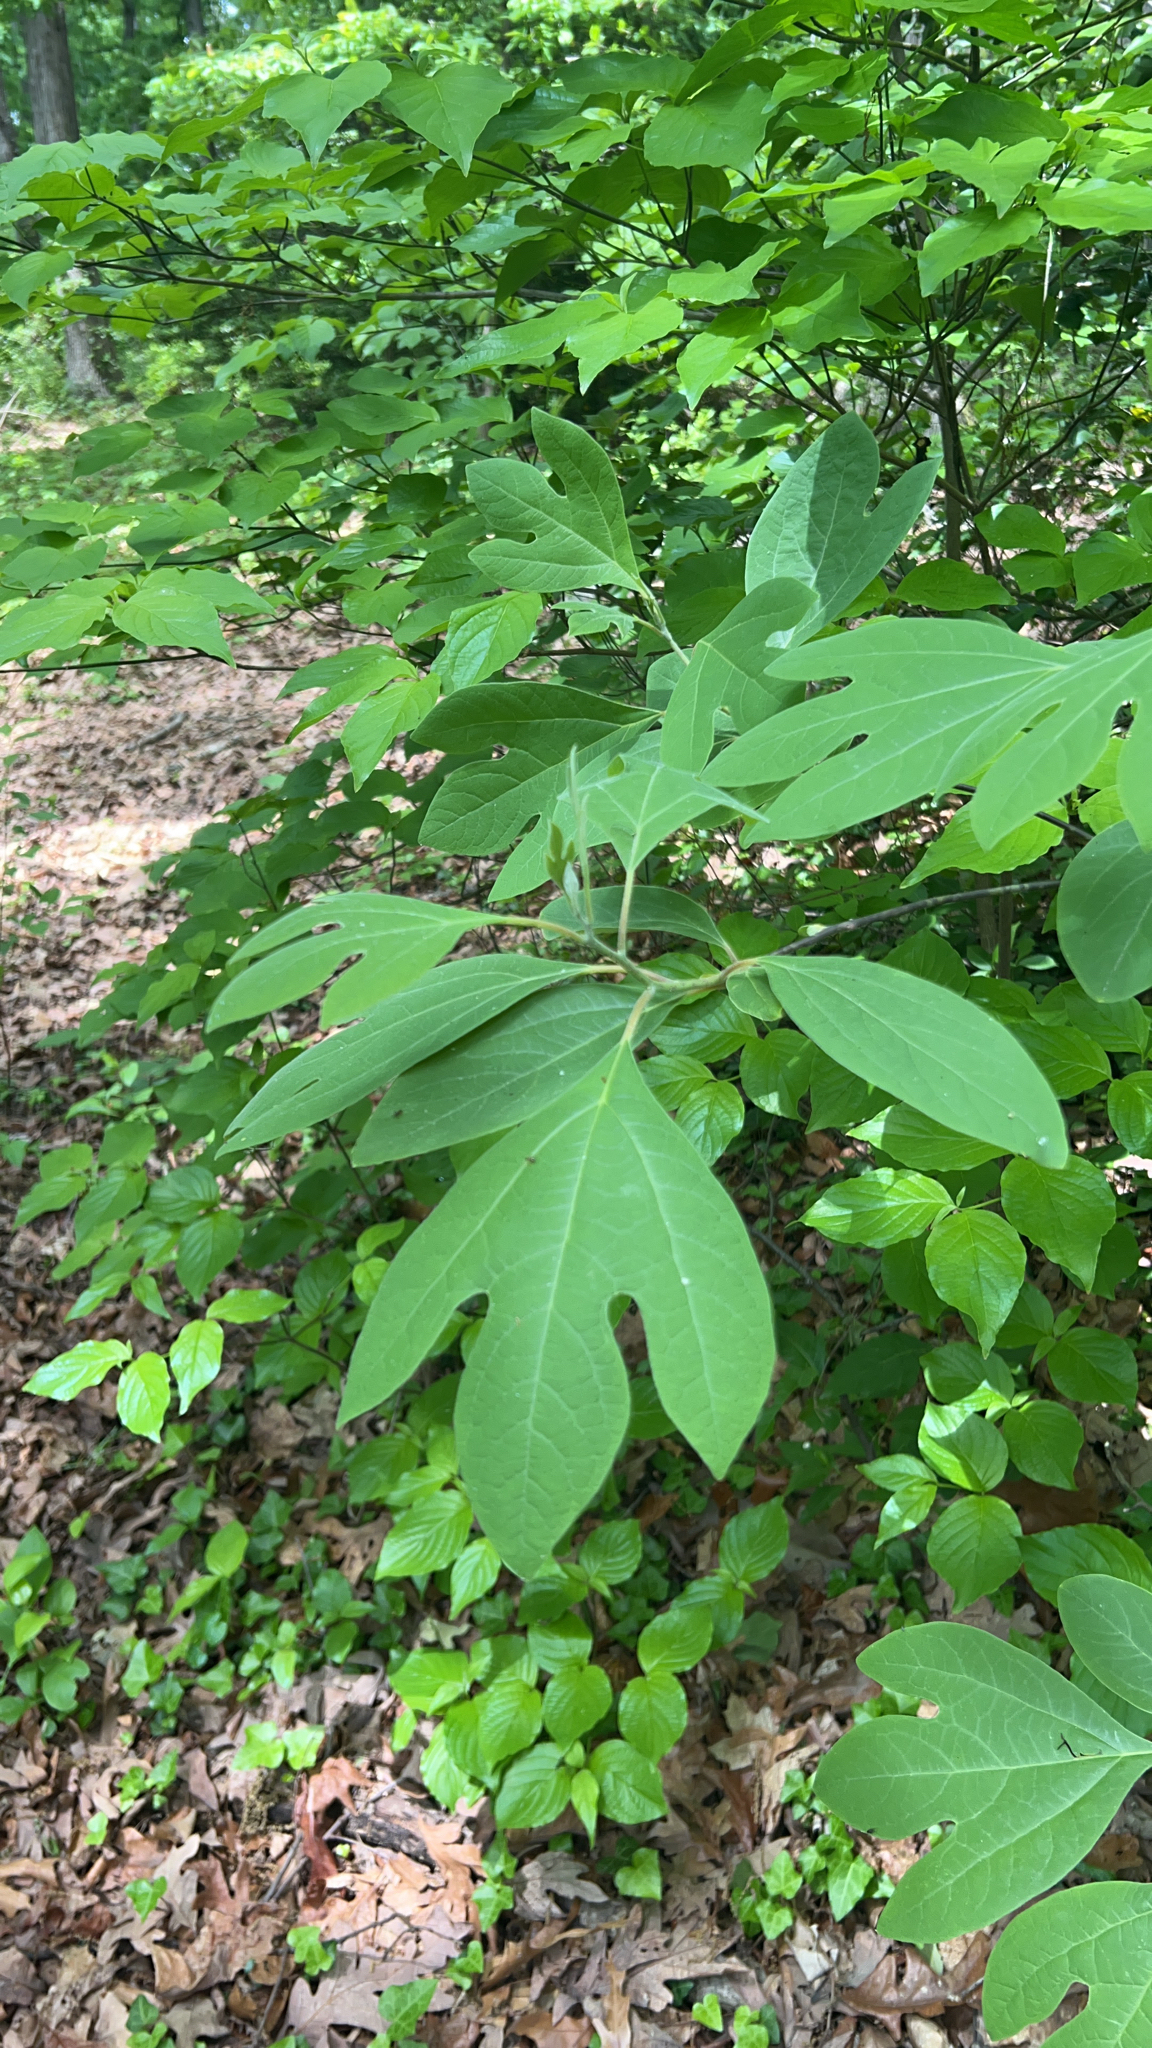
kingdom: Plantae
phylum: Tracheophyta
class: Magnoliopsida
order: Laurales
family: Lauraceae
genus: Sassafras
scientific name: Sassafras albidum
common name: Sassafras
